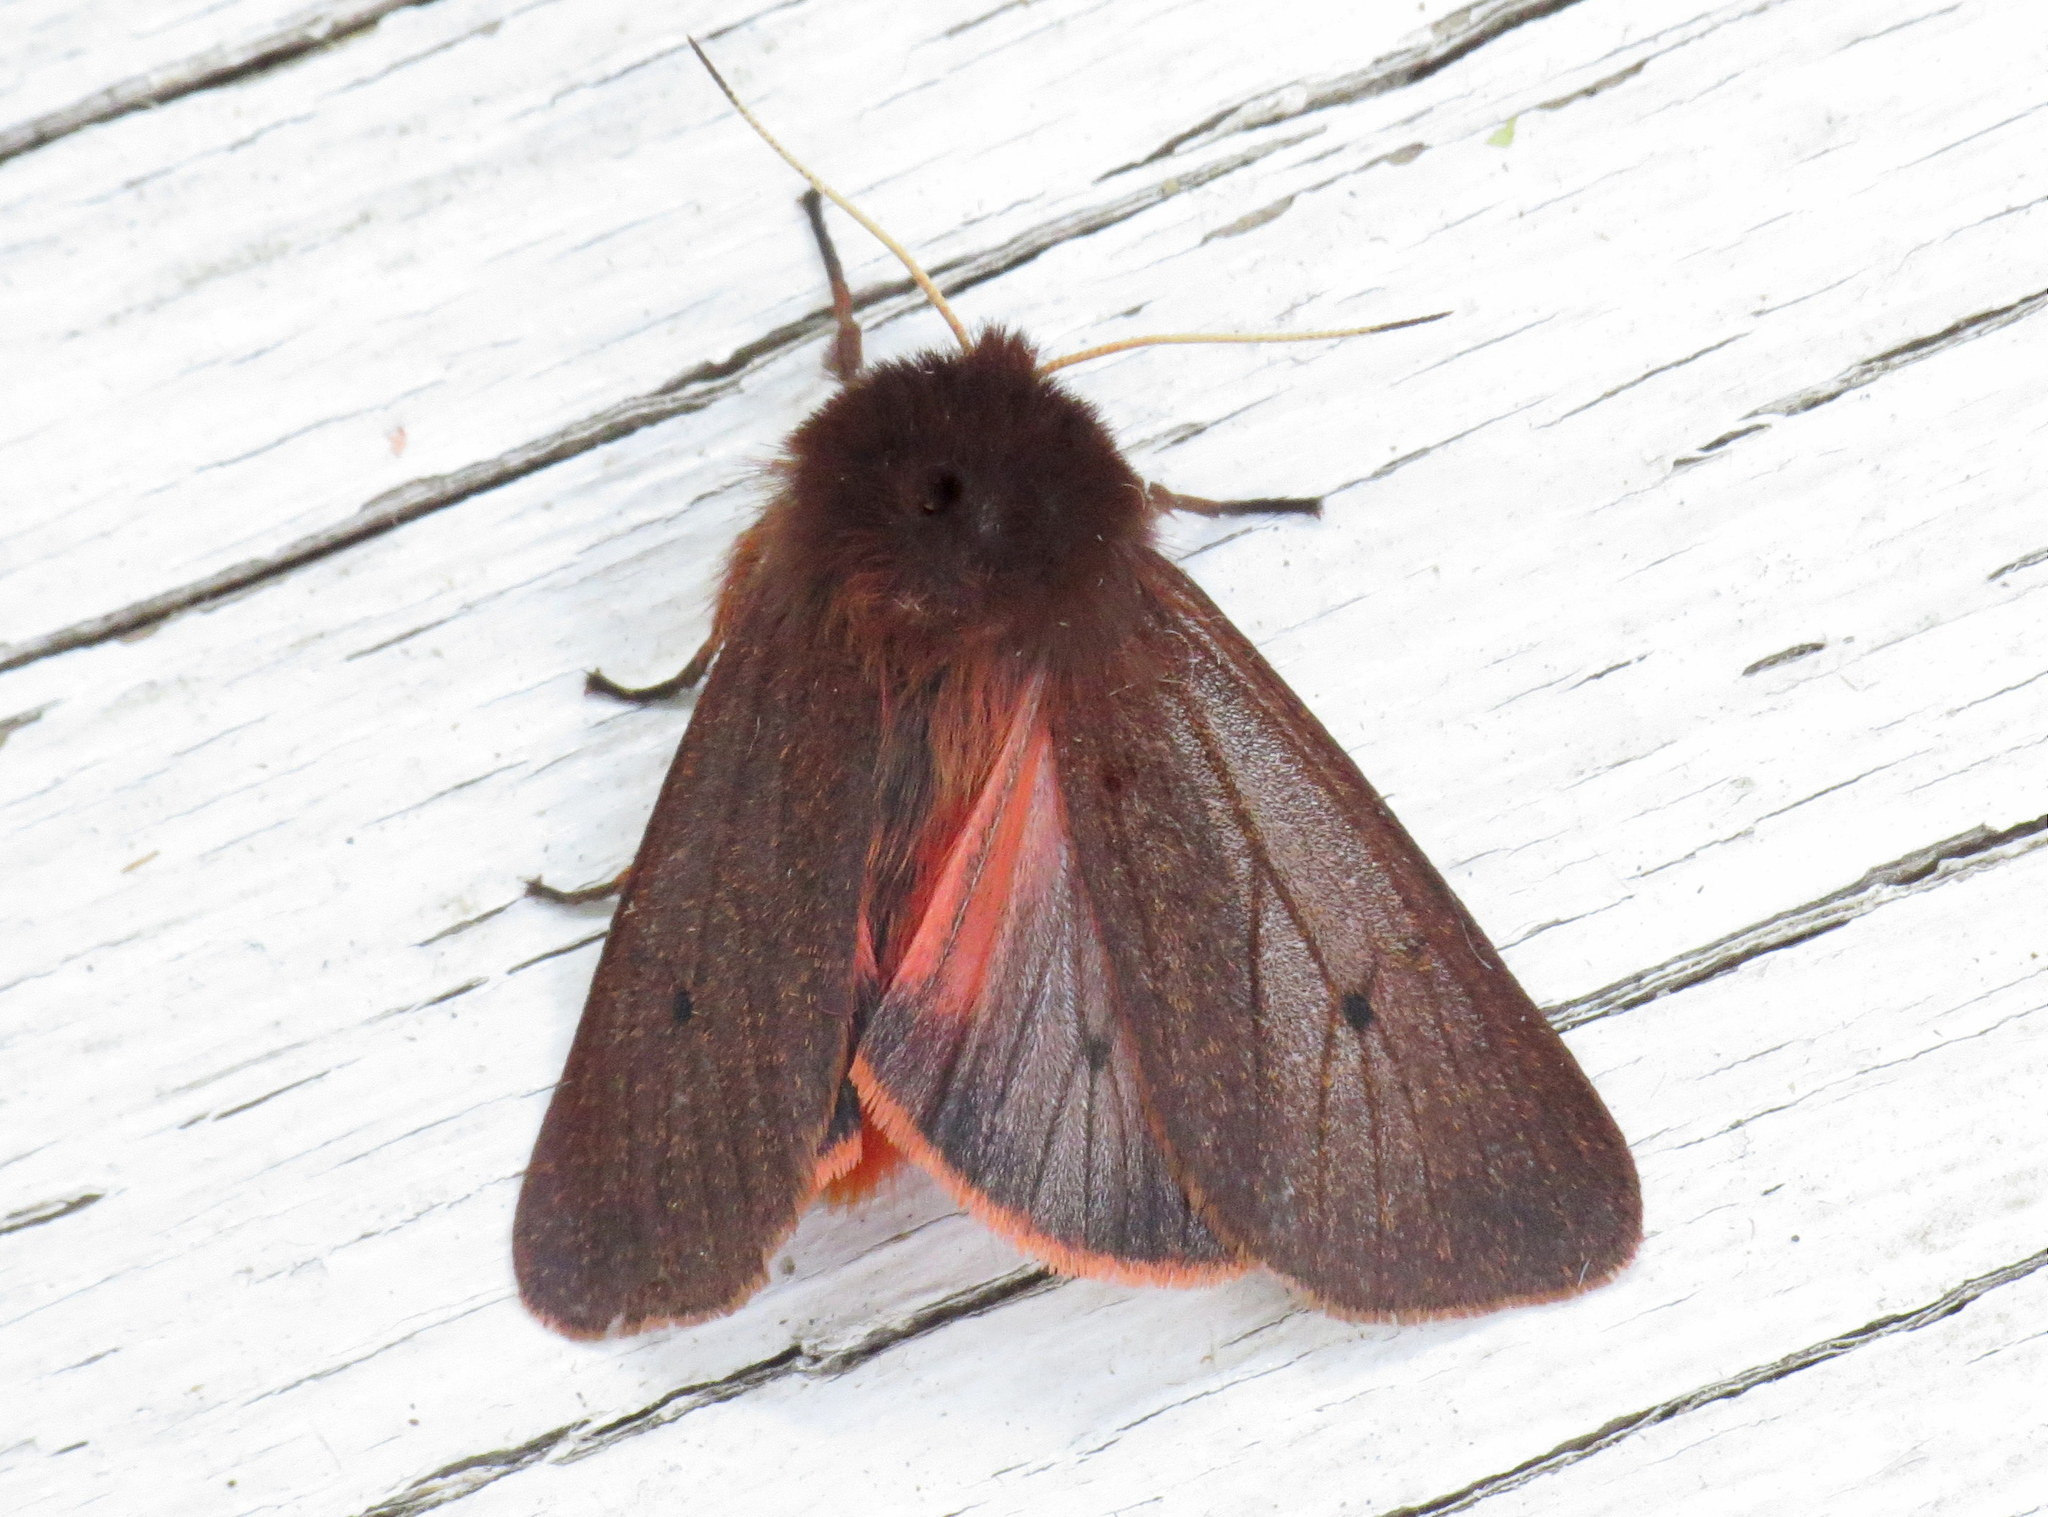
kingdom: Animalia
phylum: Arthropoda
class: Insecta
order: Lepidoptera
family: Erebidae
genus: Phragmatobia
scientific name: Phragmatobia fuliginosa
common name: Ruby tiger
